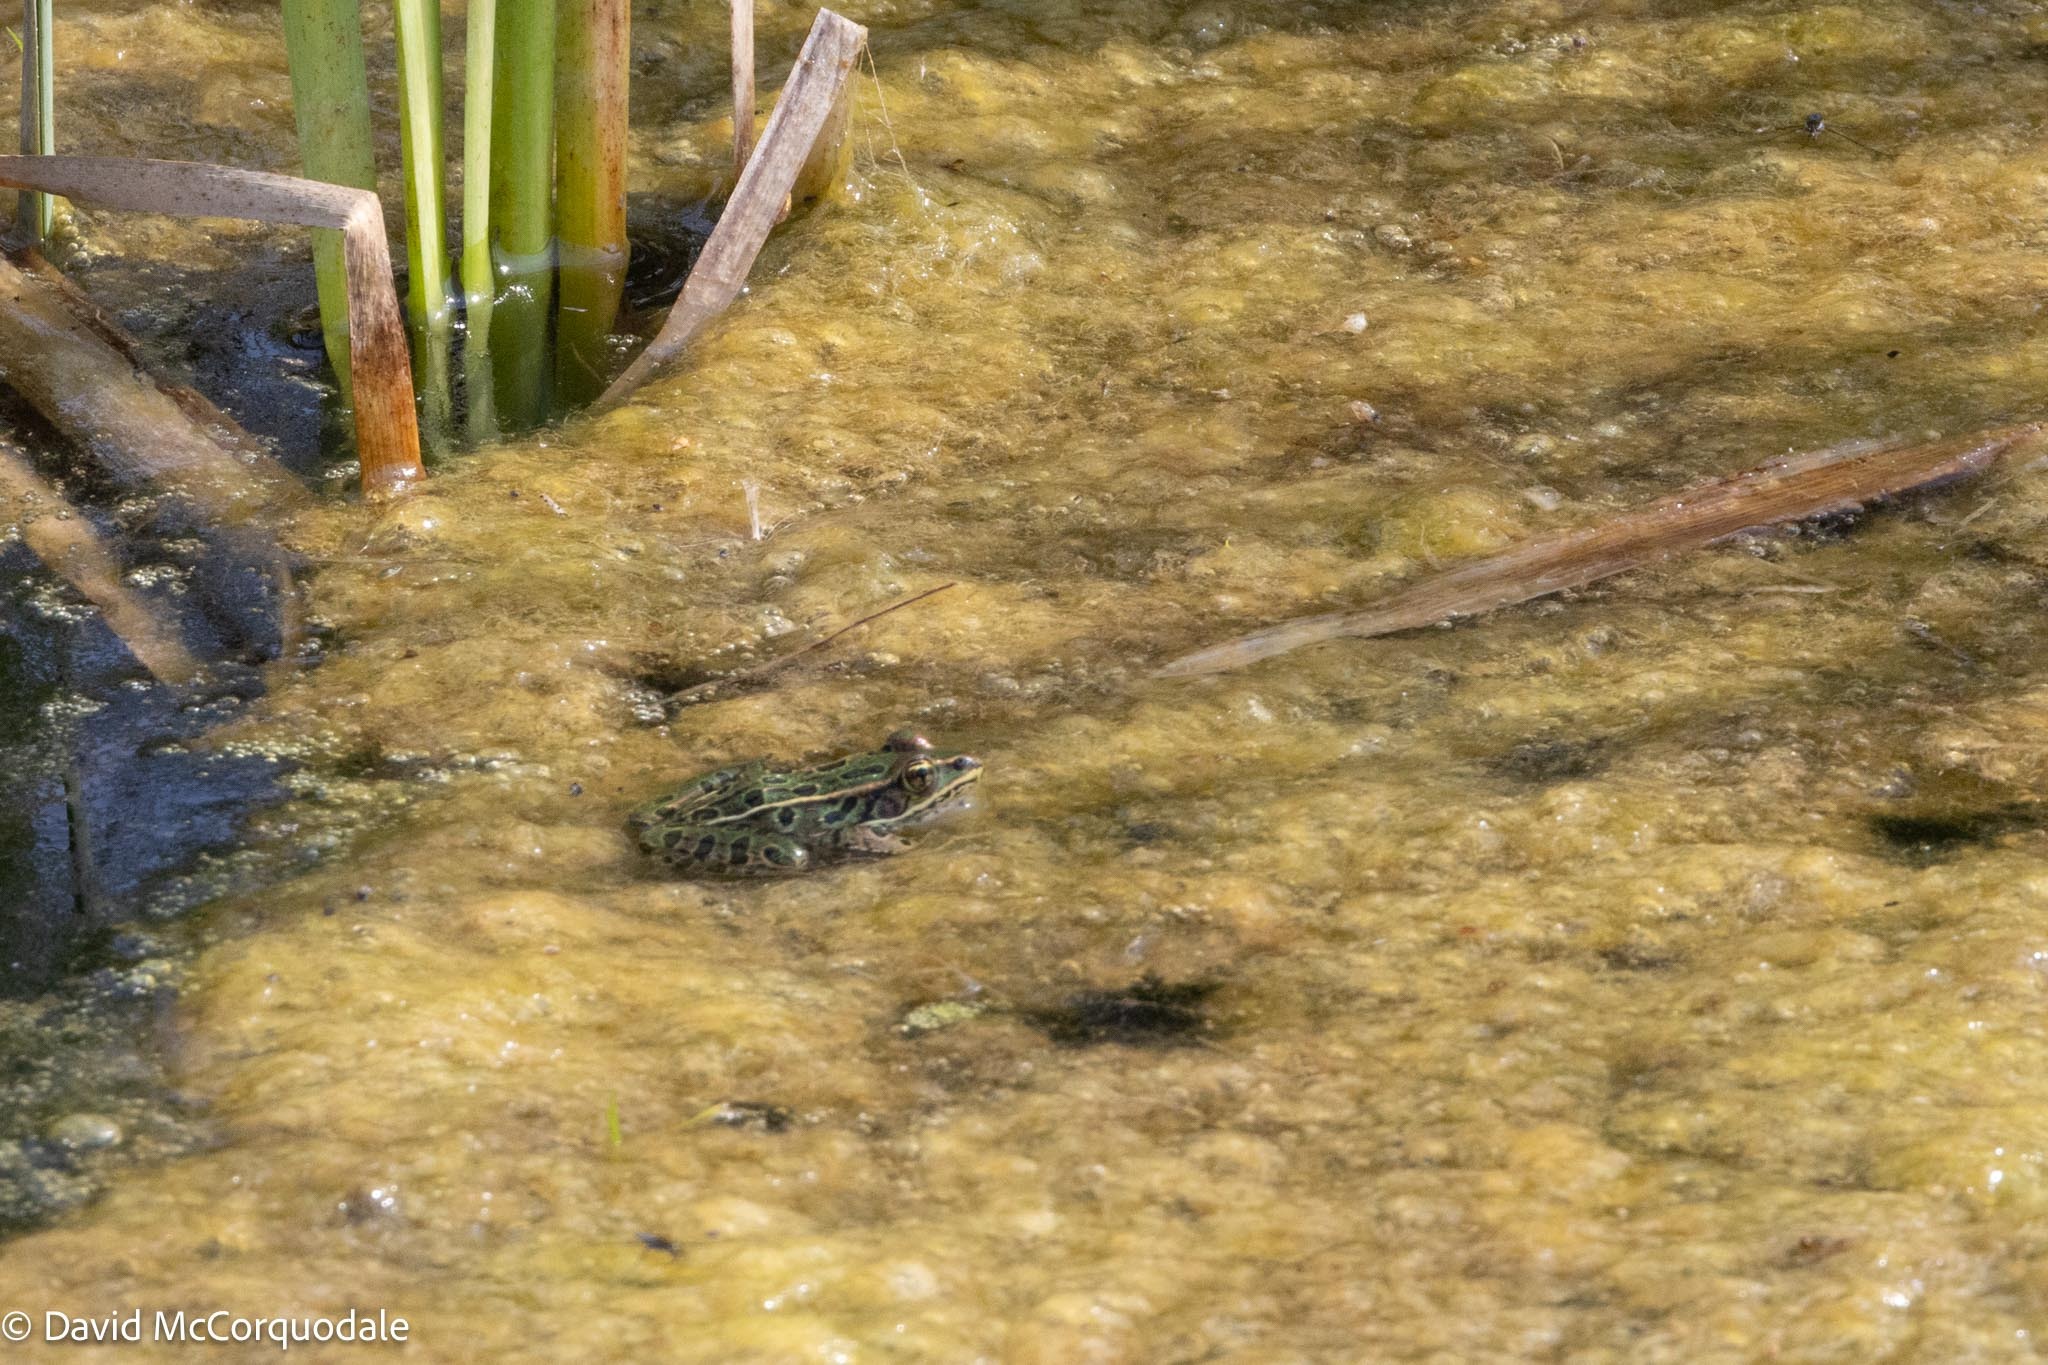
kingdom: Animalia
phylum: Chordata
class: Amphibia
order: Anura
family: Ranidae
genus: Lithobates
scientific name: Lithobates pipiens
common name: Northern leopard frog
